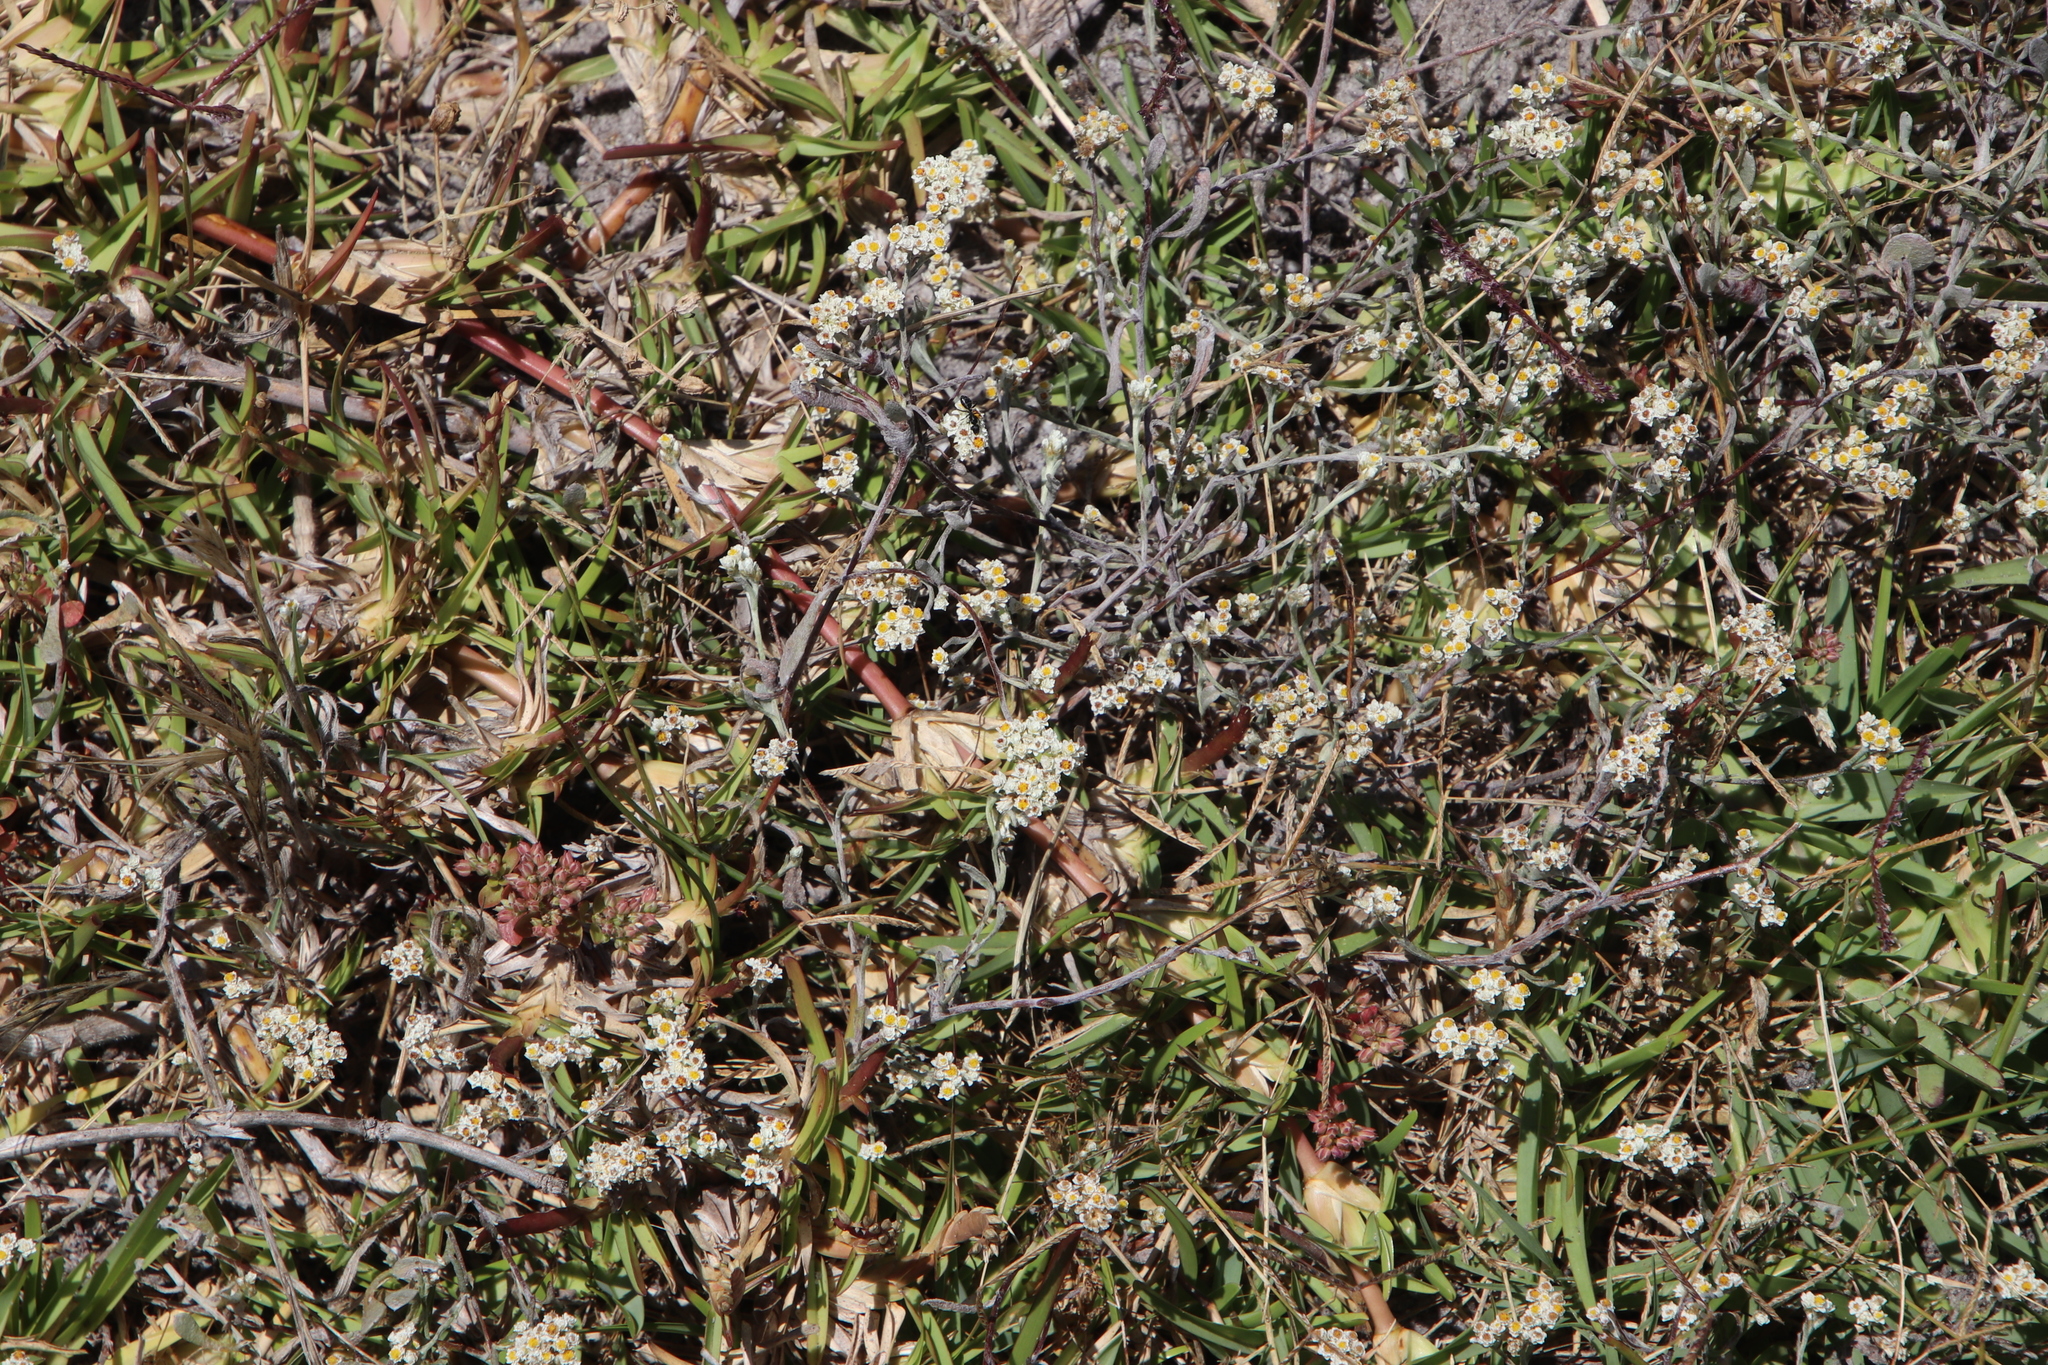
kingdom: Plantae
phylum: Tracheophyta
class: Liliopsida
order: Poales
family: Poaceae
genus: Stenotaphrum
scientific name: Stenotaphrum secundatum
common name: St. augustine grass
